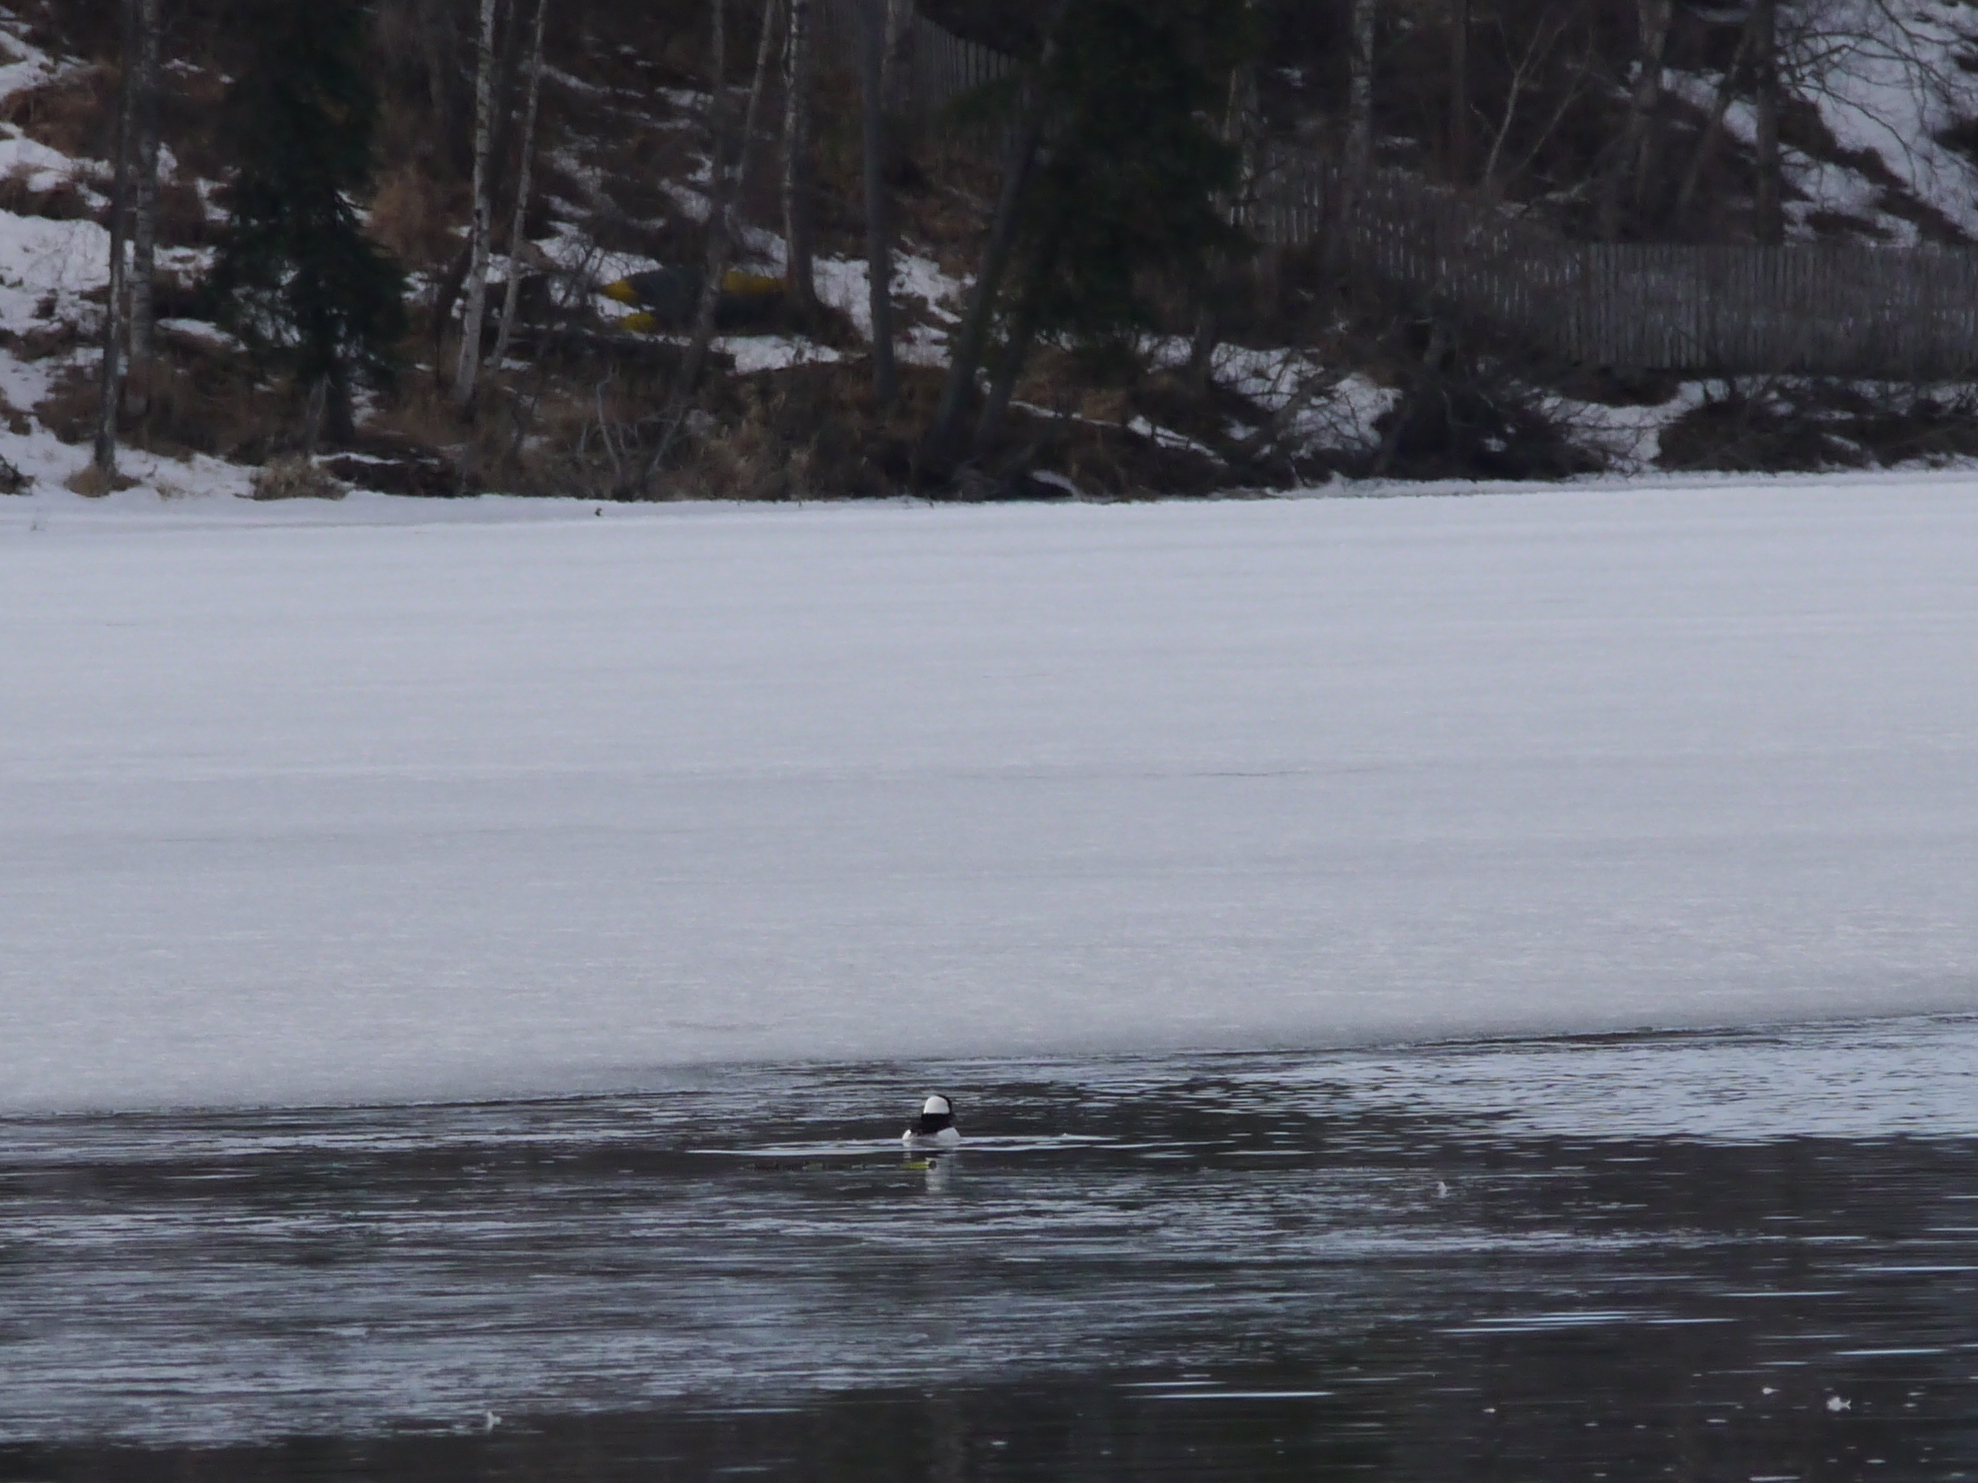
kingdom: Animalia
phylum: Chordata
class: Aves
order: Anseriformes
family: Anatidae
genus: Bucephala
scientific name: Bucephala albeola
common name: Bufflehead
